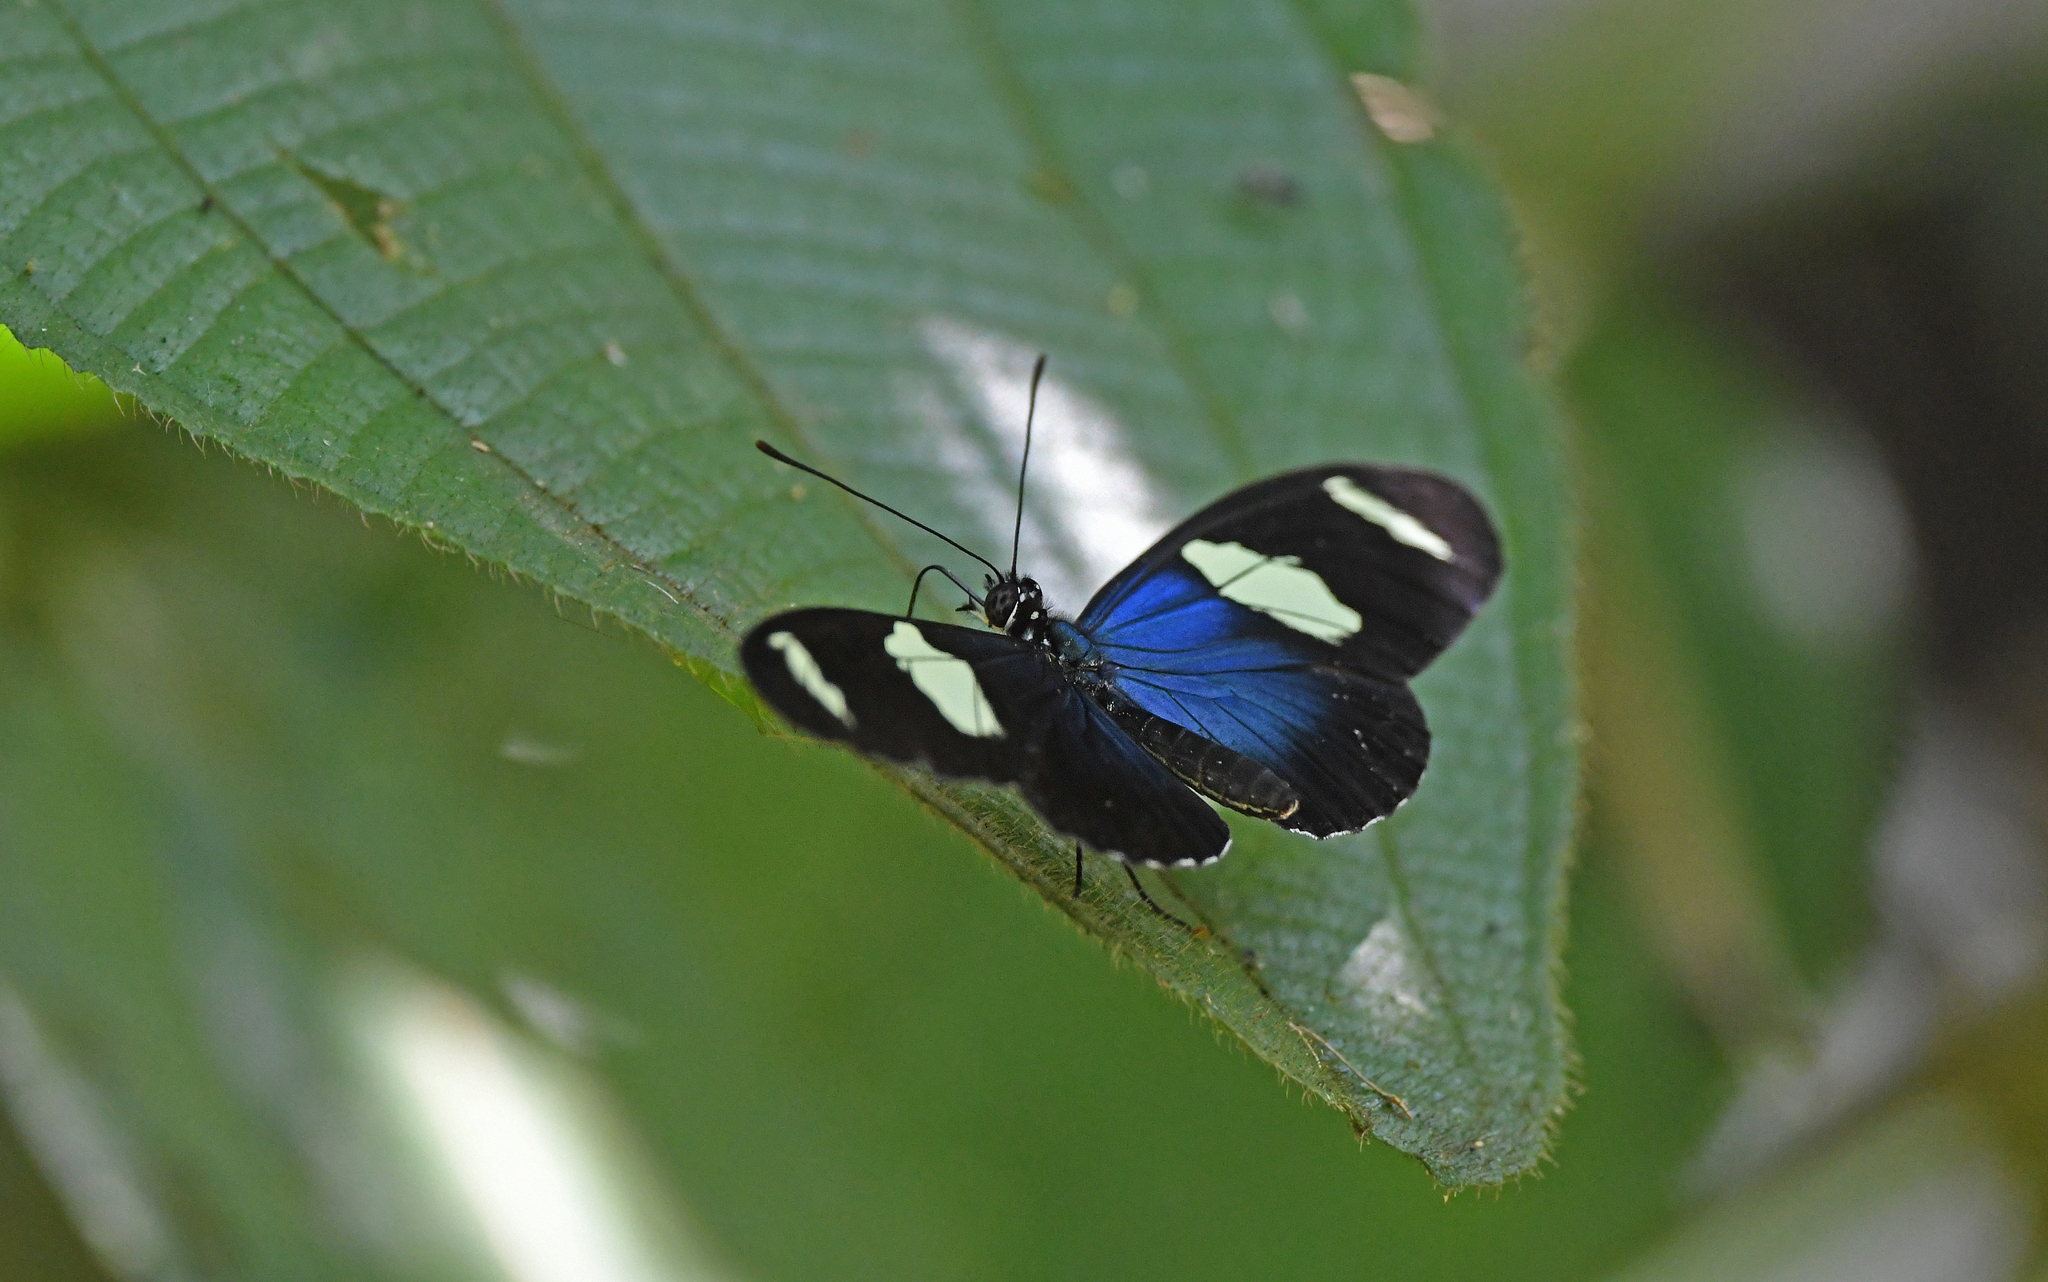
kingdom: Animalia
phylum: Arthropoda
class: Insecta
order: Lepidoptera
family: Nymphalidae
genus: Heliconius
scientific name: Heliconius sara
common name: Sara longwing
